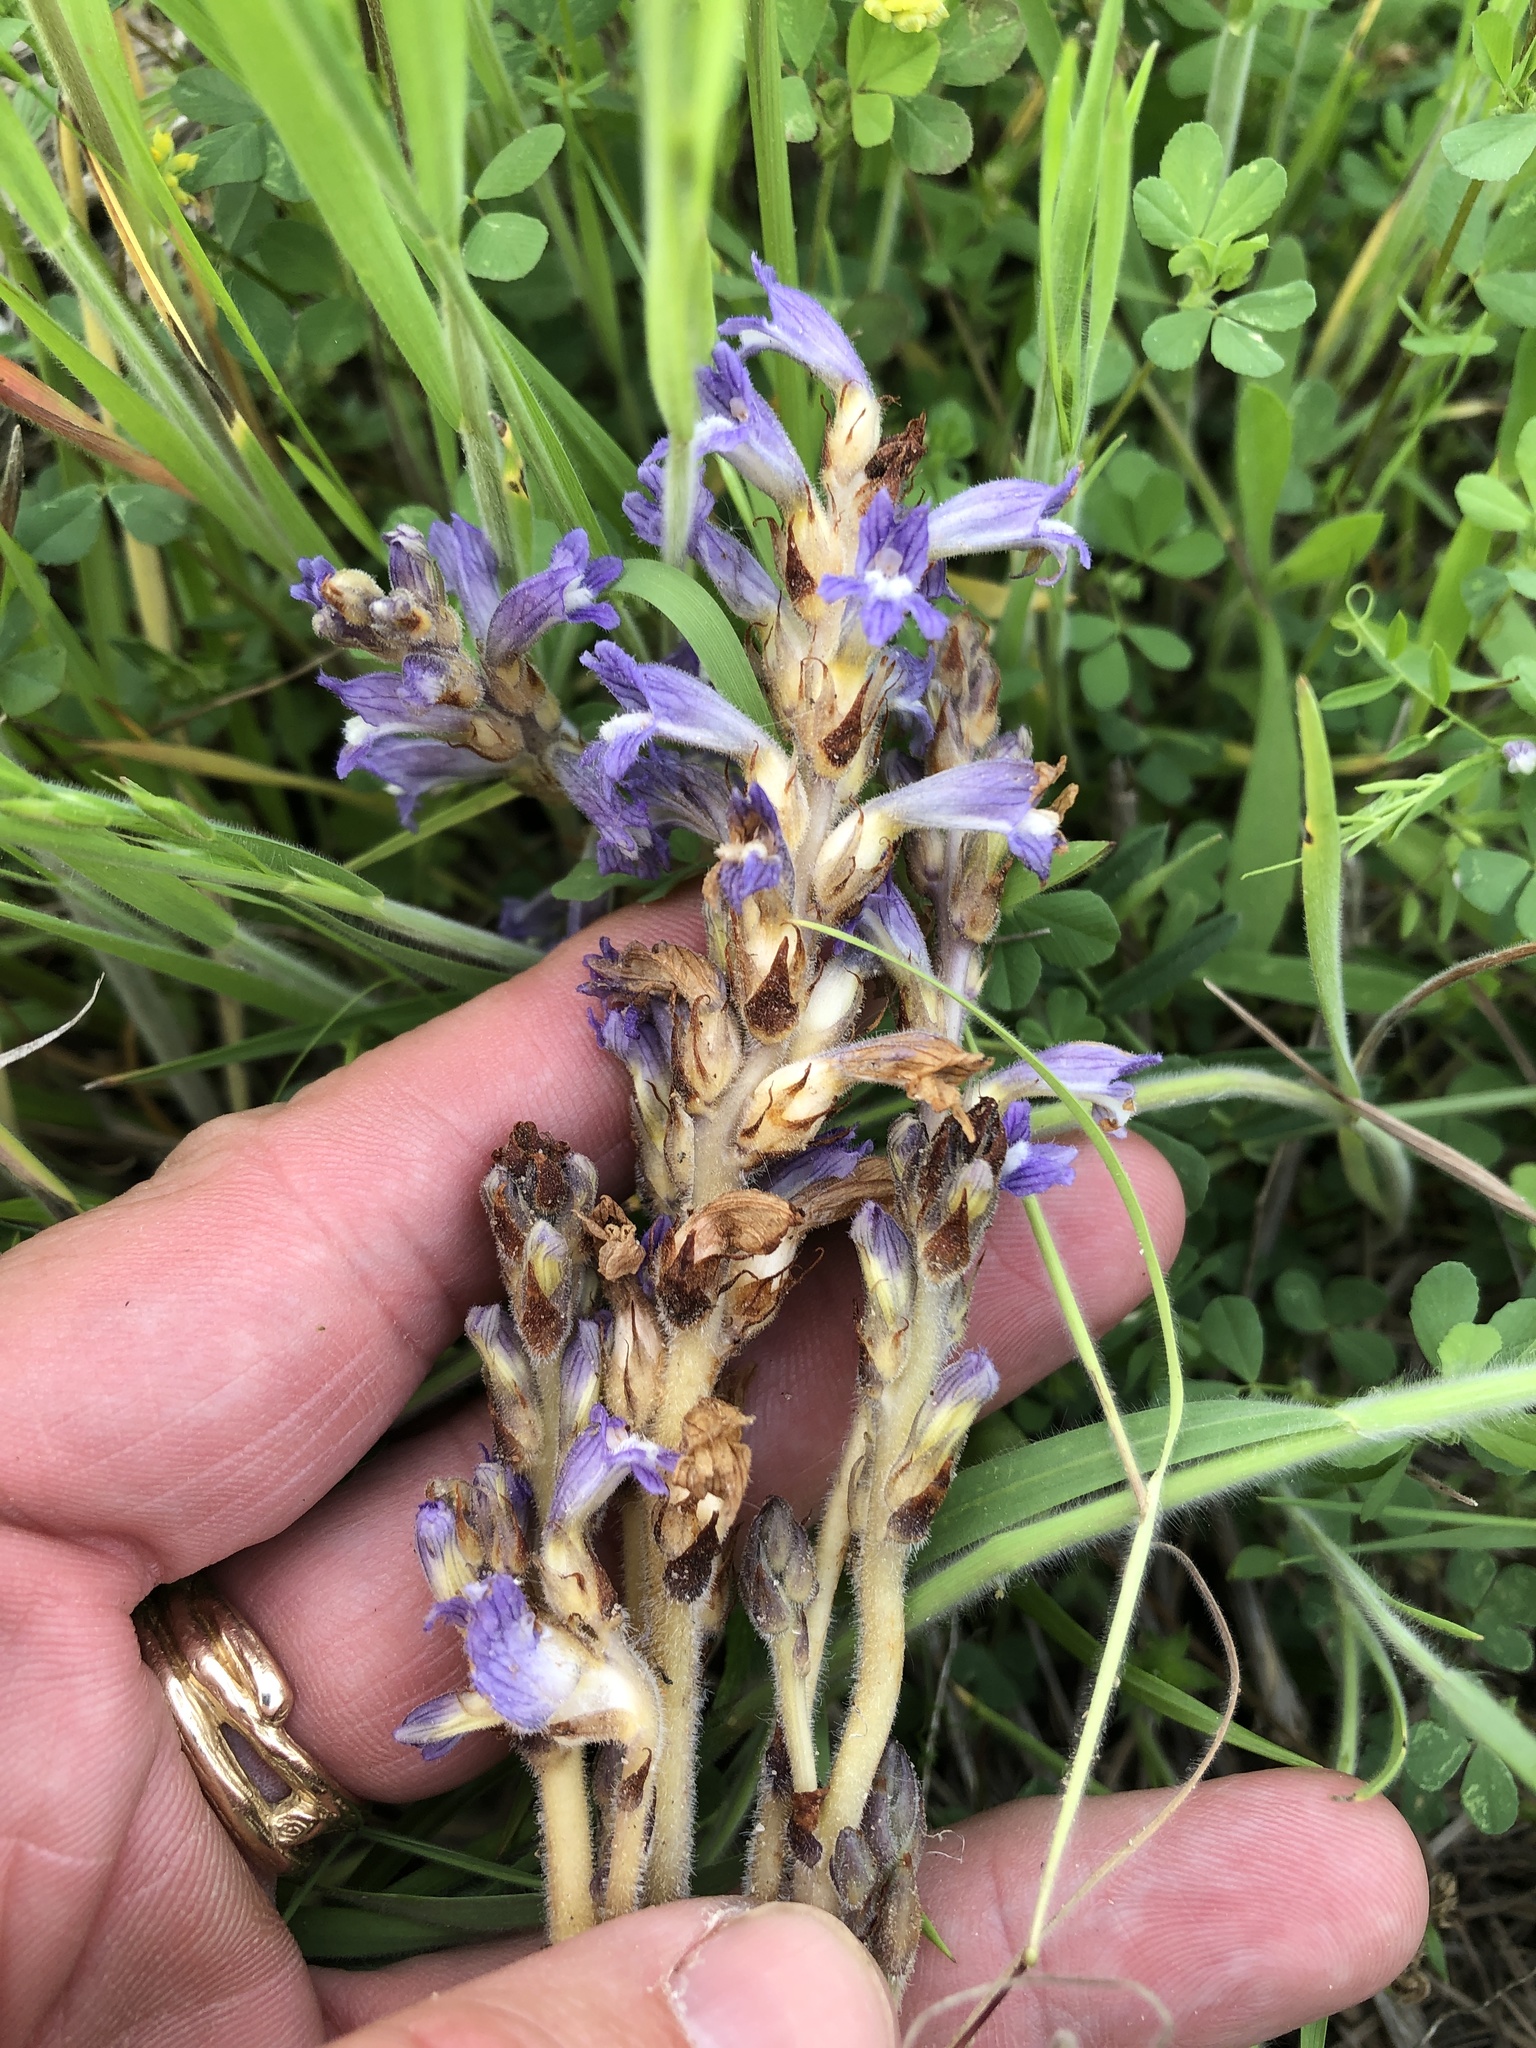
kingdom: Plantae
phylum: Tracheophyta
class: Magnoliopsida
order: Lamiales
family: Orobanchaceae
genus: Phelipanche
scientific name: Phelipanche mutelii
